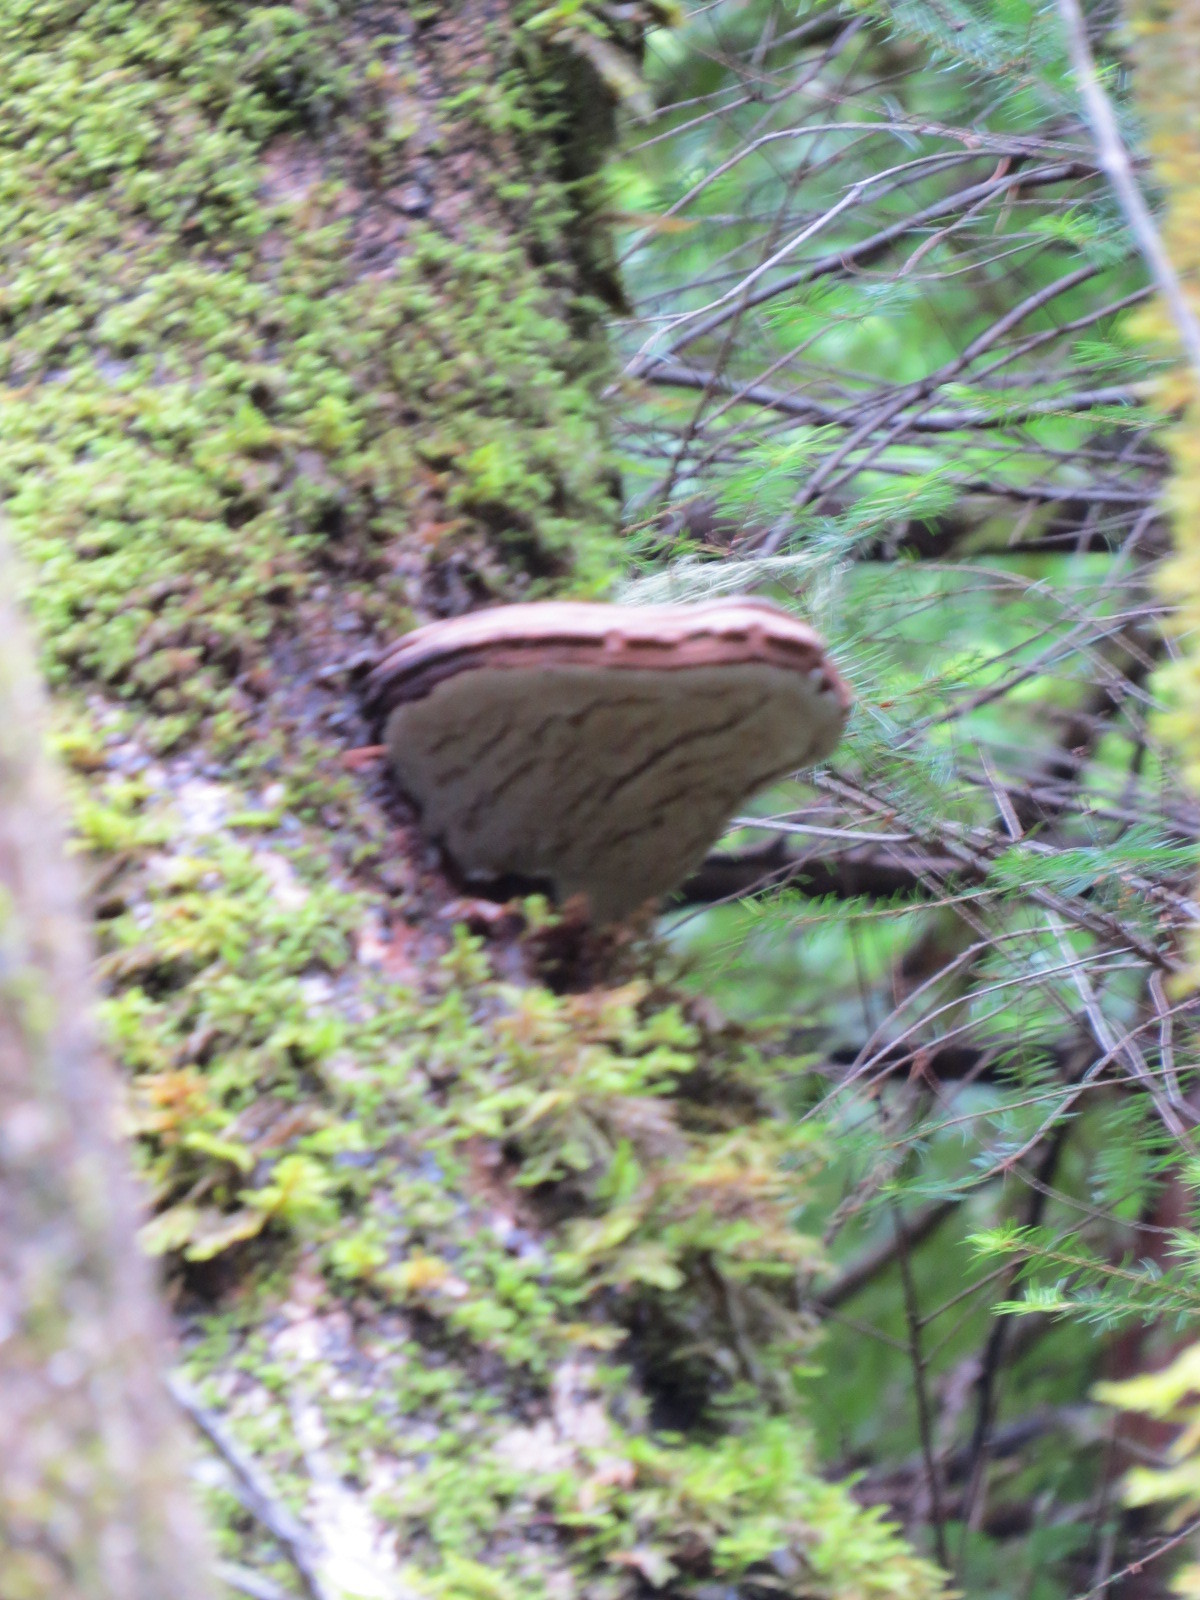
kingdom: Fungi
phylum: Basidiomycota
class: Agaricomycetes
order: Polyporales
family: Polyporaceae
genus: Ganoderma
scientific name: Ganoderma brownii
